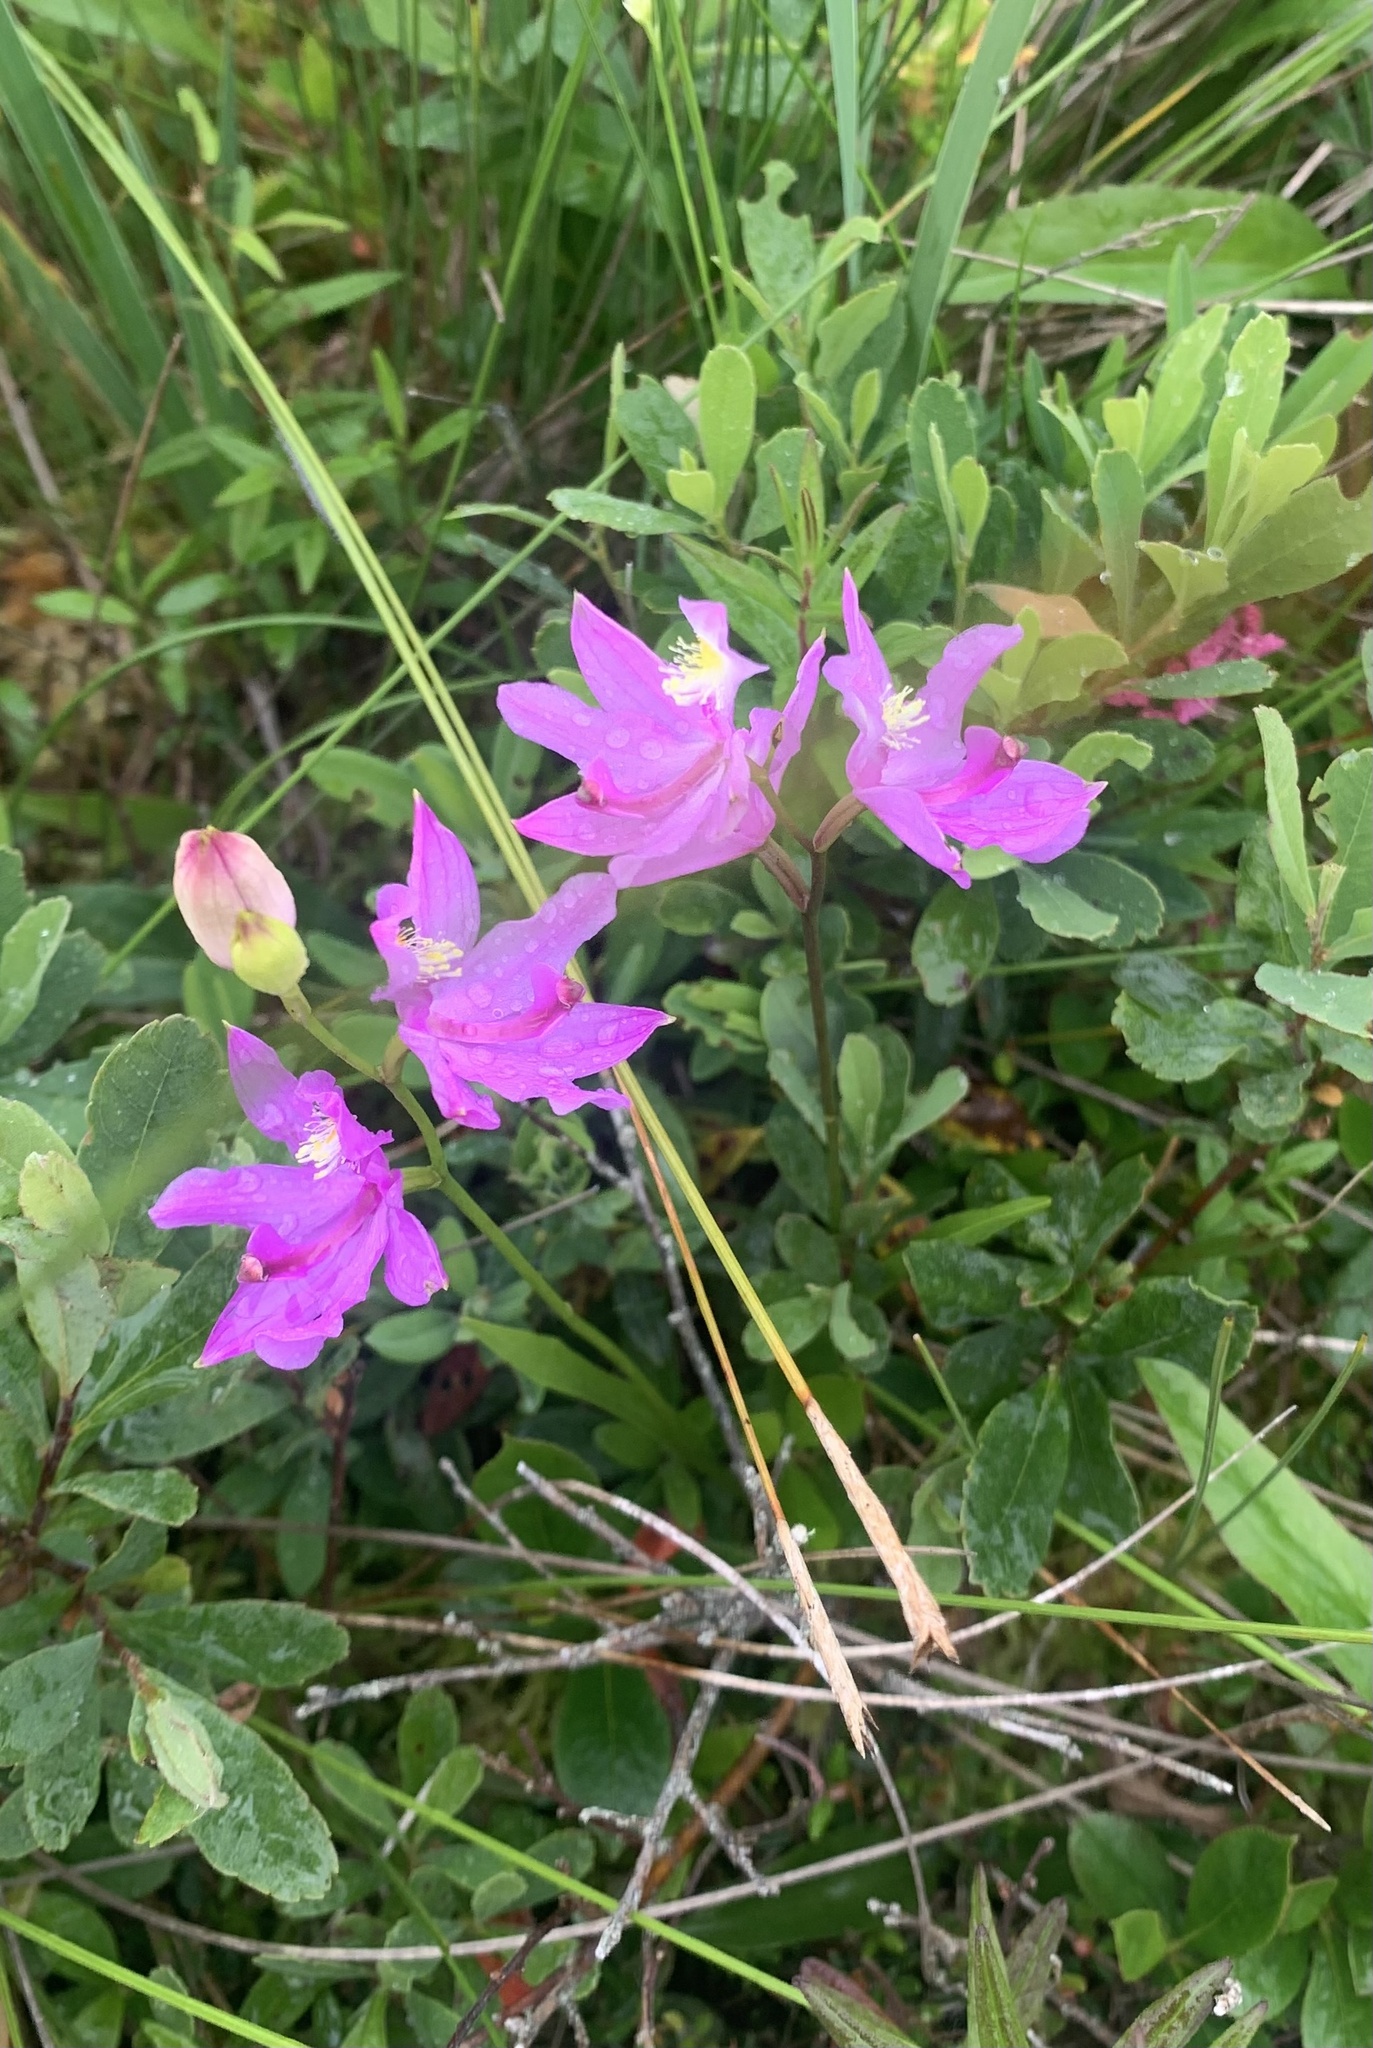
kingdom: Plantae
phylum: Tracheophyta
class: Liliopsida
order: Asparagales
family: Orchidaceae
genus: Calopogon
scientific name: Calopogon tuberosus
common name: Grass-pink
